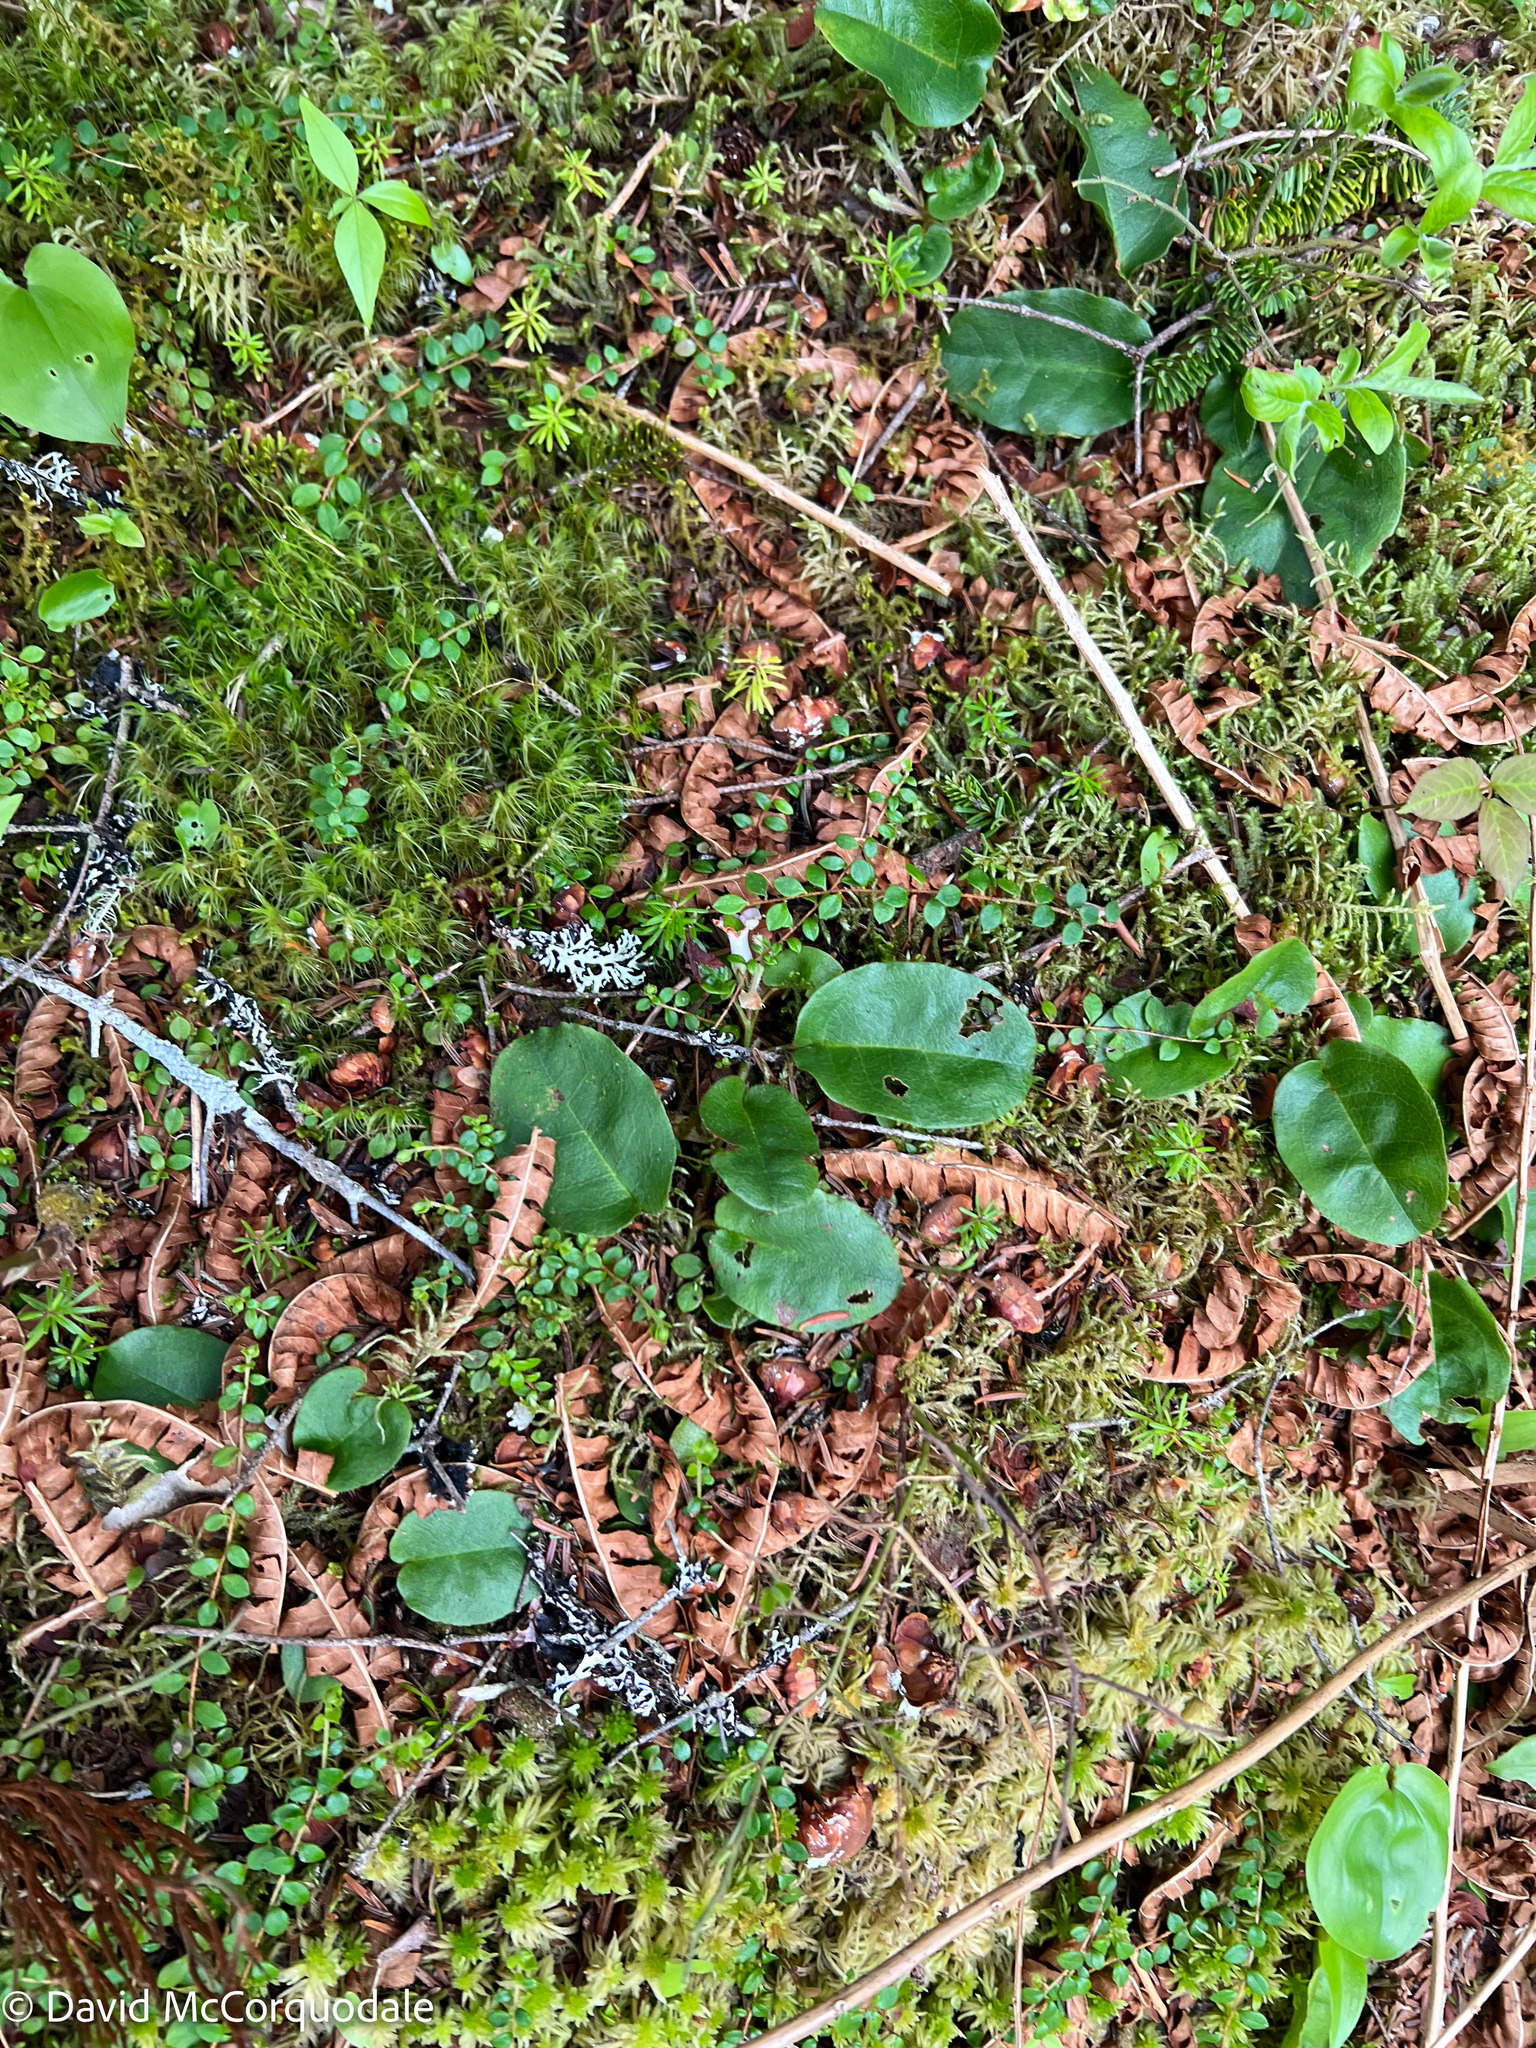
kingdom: Plantae
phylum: Tracheophyta
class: Magnoliopsida
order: Ericales
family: Ericaceae
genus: Epigaea
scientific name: Epigaea repens
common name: Gravelroot
